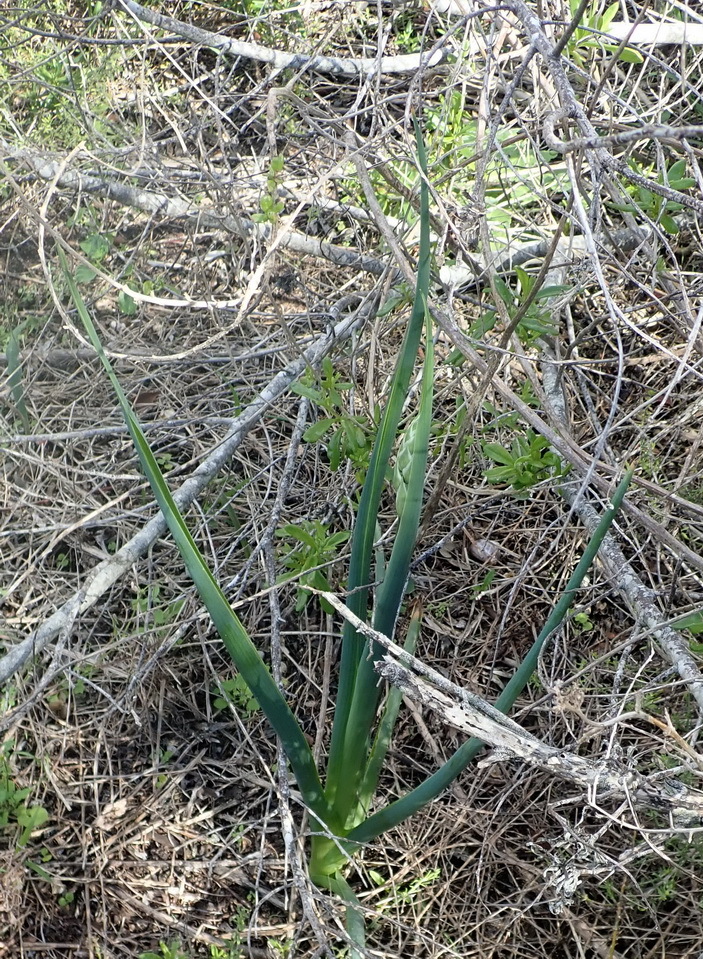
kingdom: Plantae
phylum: Tracheophyta
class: Liliopsida
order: Asparagales
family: Asparagaceae
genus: Albuca
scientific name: Albuca canadensis
